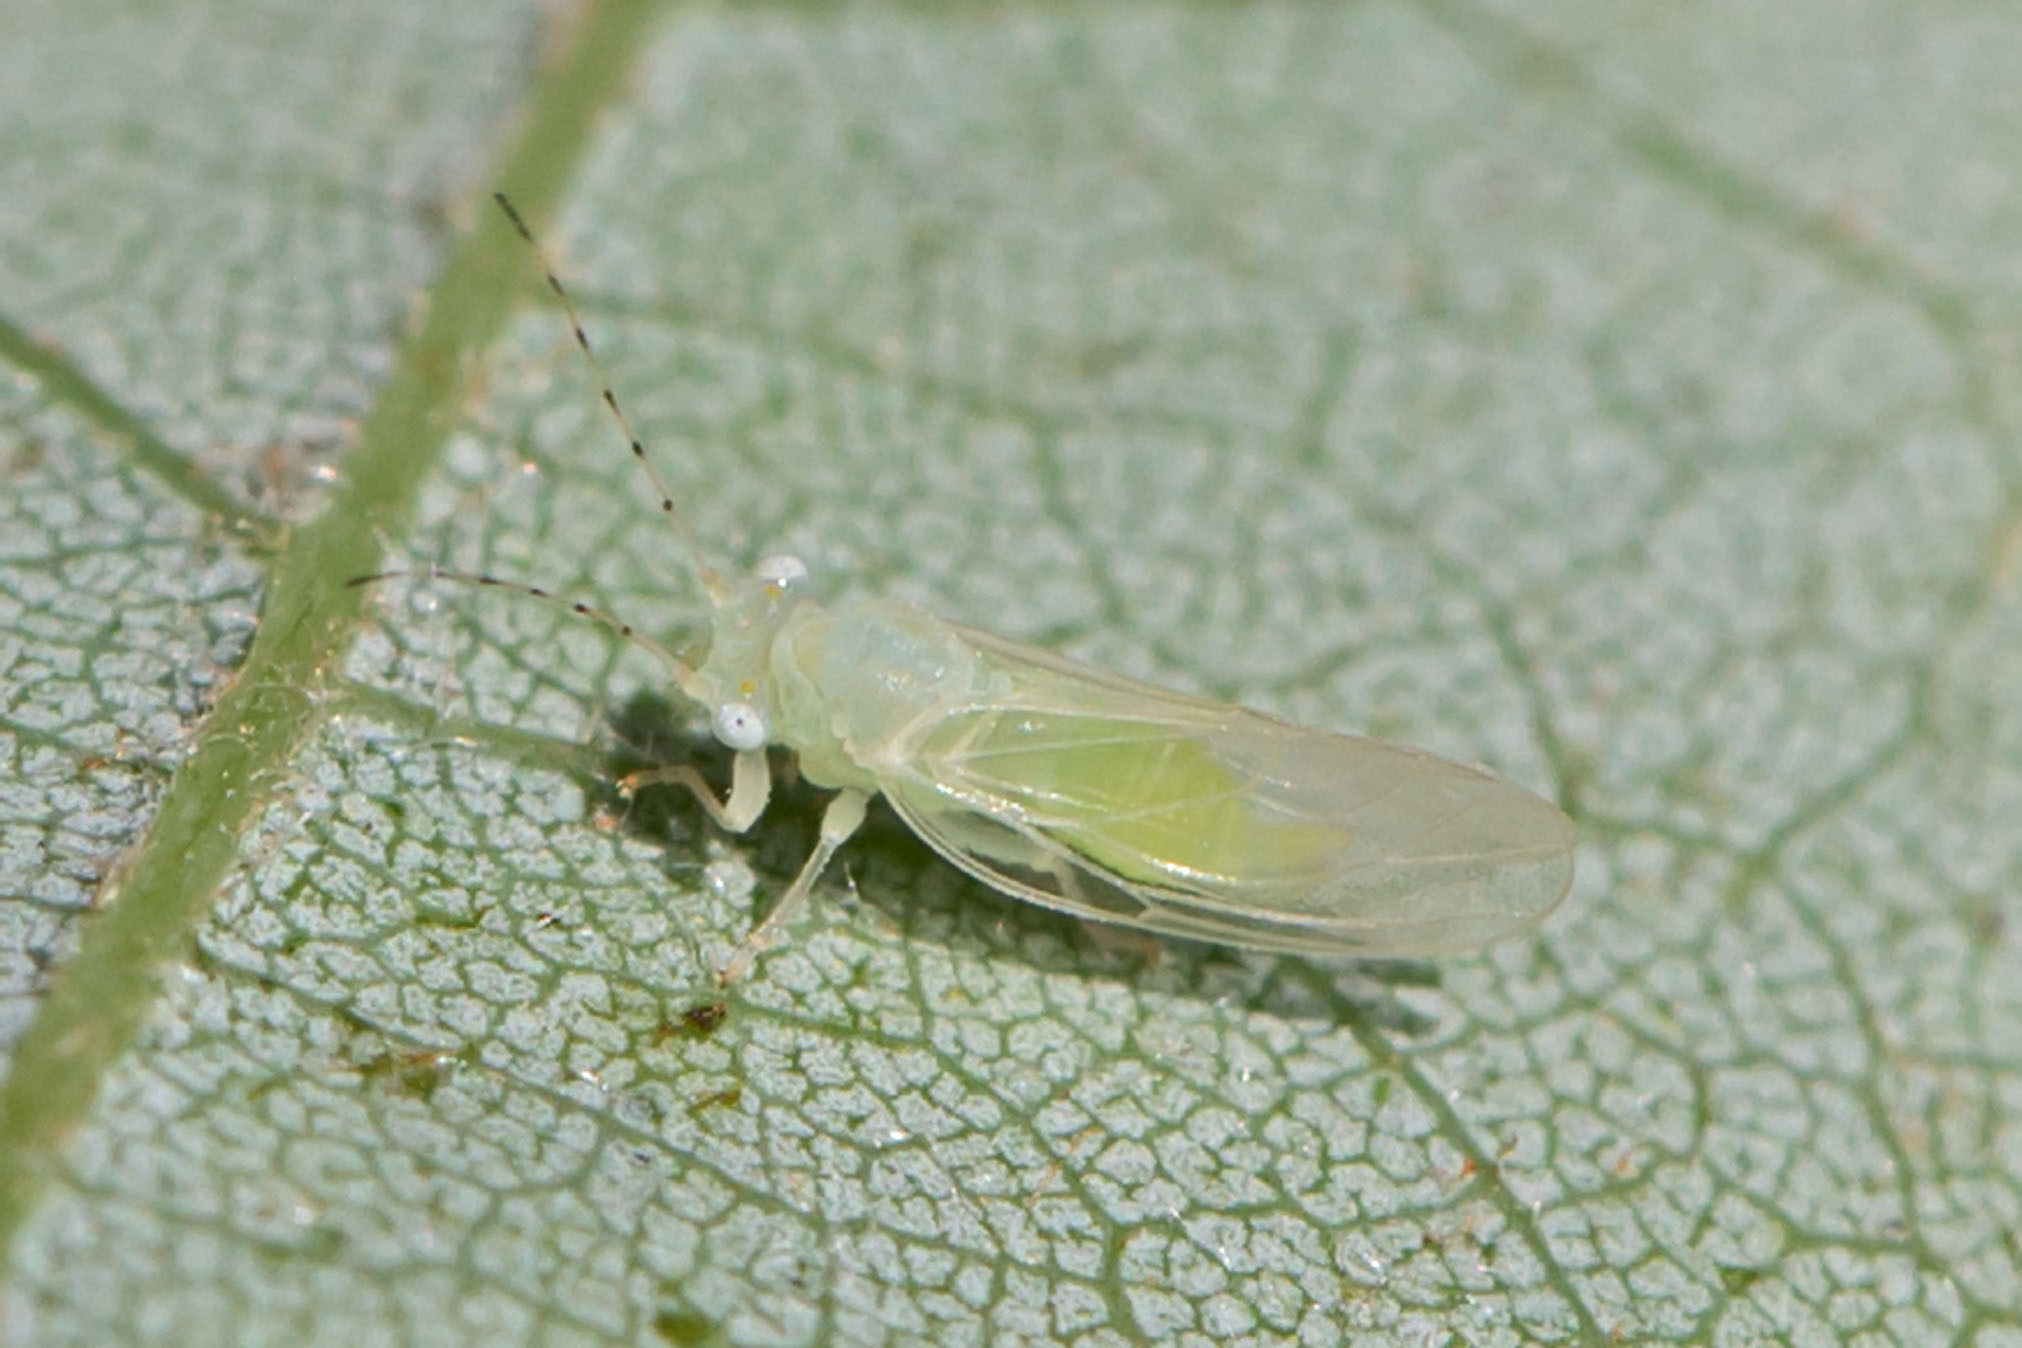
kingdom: Animalia
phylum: Arthropoda
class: Insecta
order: Hemiptera
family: Psyllidae
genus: Cacopsylla
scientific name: Cacopsylla annulata
